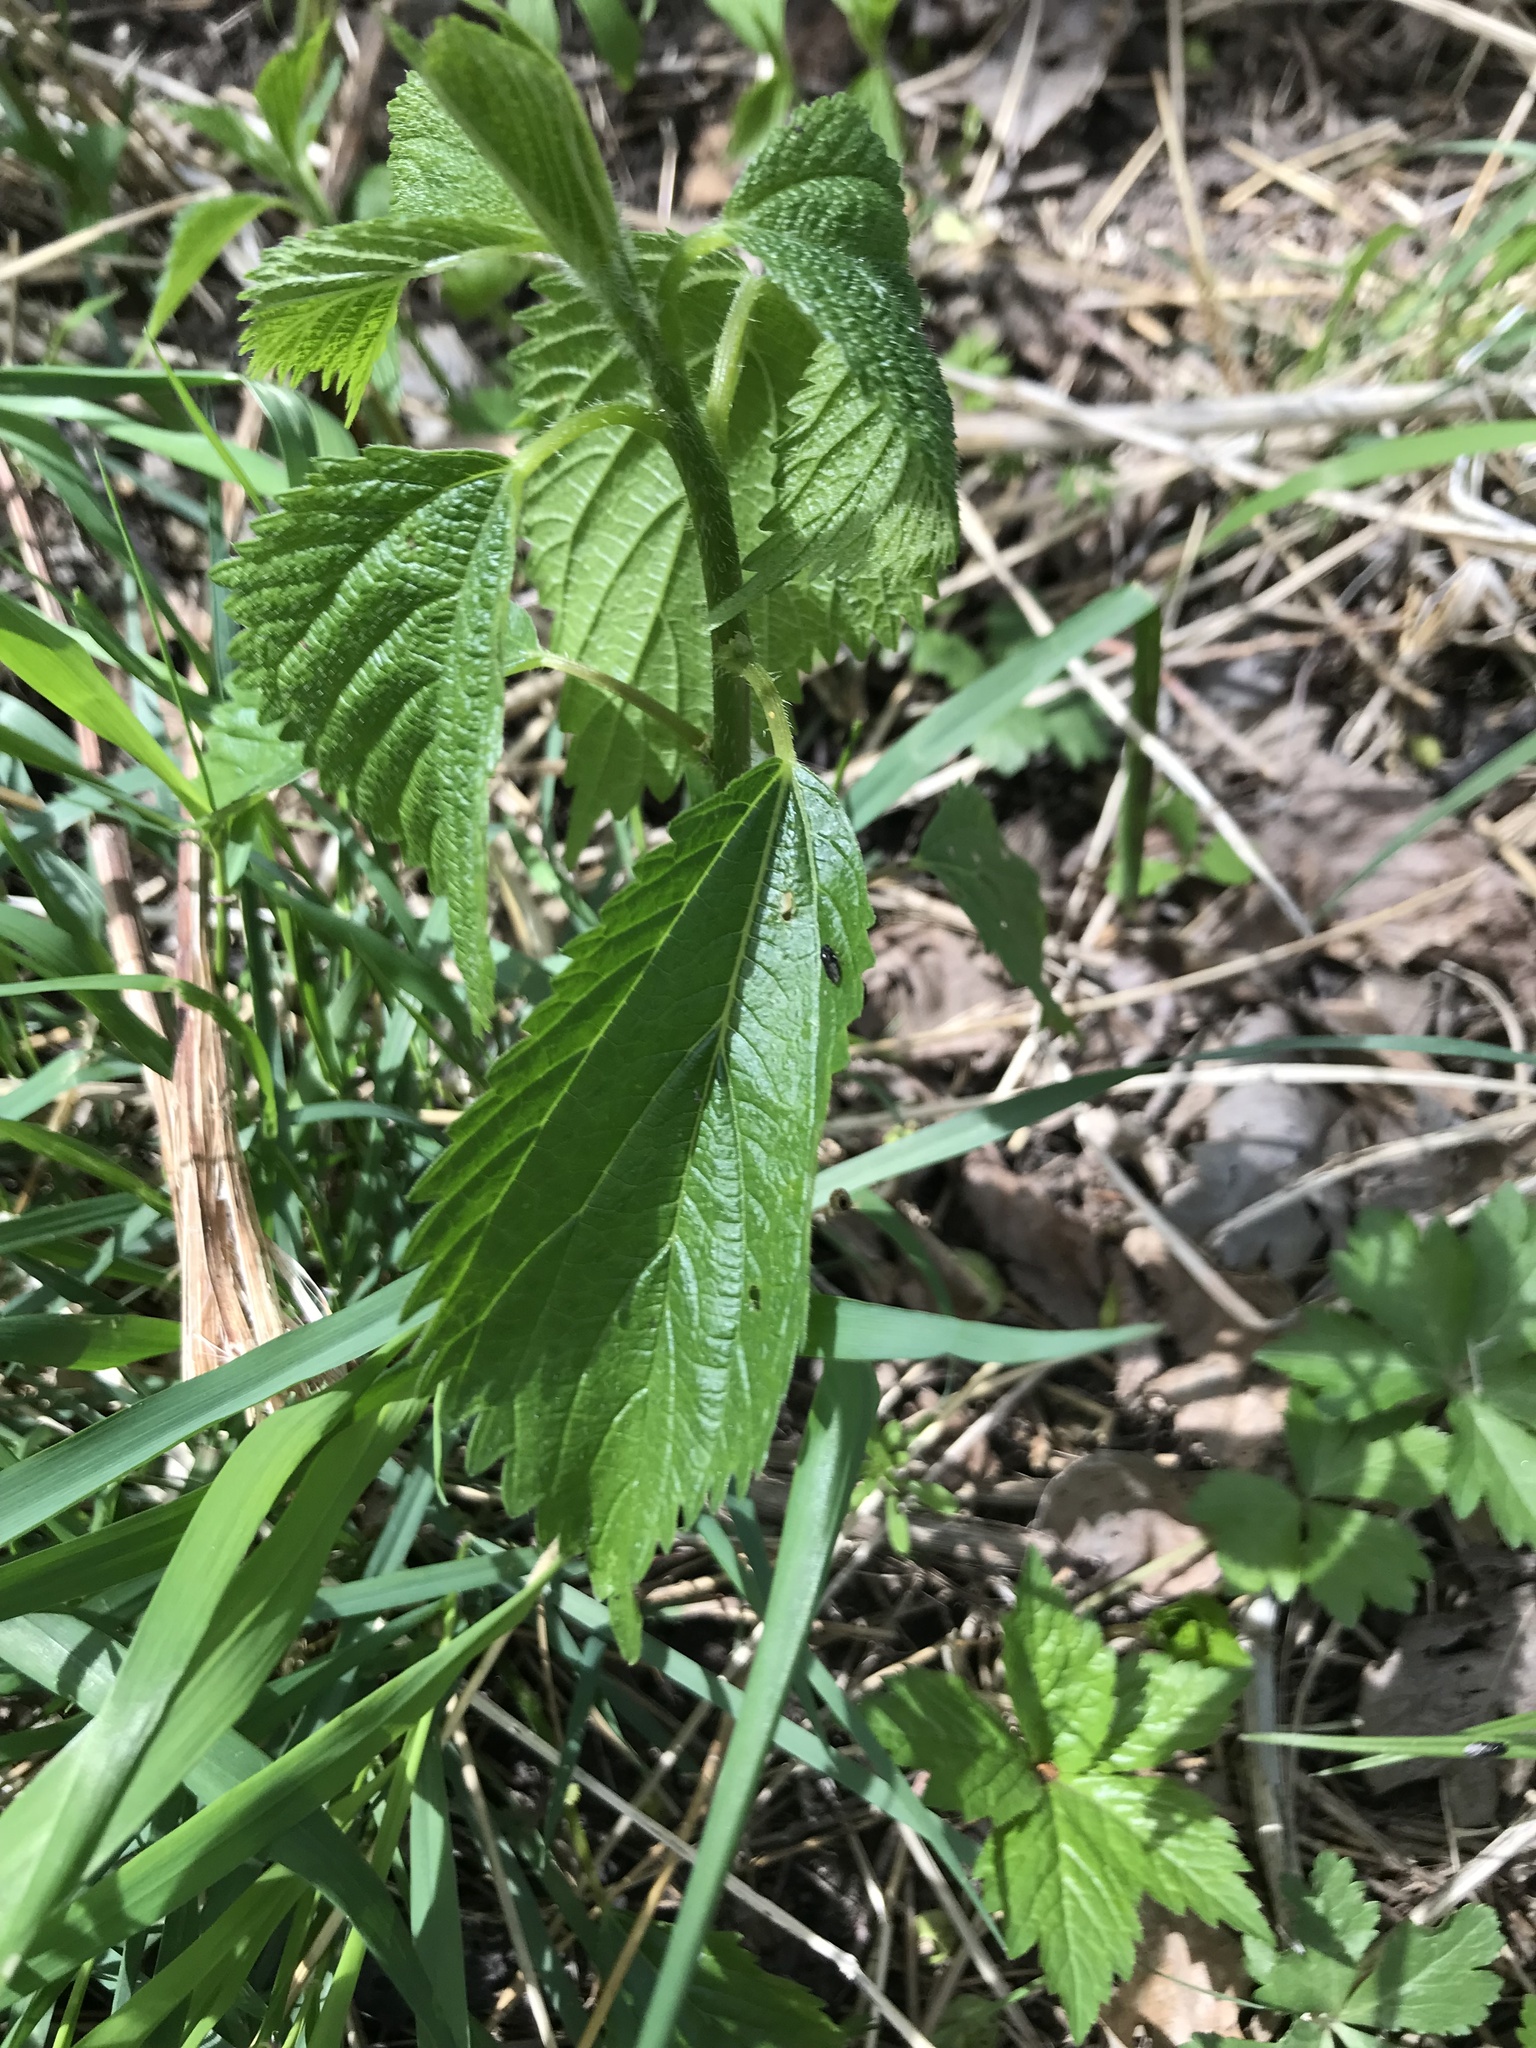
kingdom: Plantae
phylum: Tracheophyta
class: Magnoliopsida
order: Rosales
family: Urticaceae
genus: Laportea
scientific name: Laportea canadensis
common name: Canada nettle
